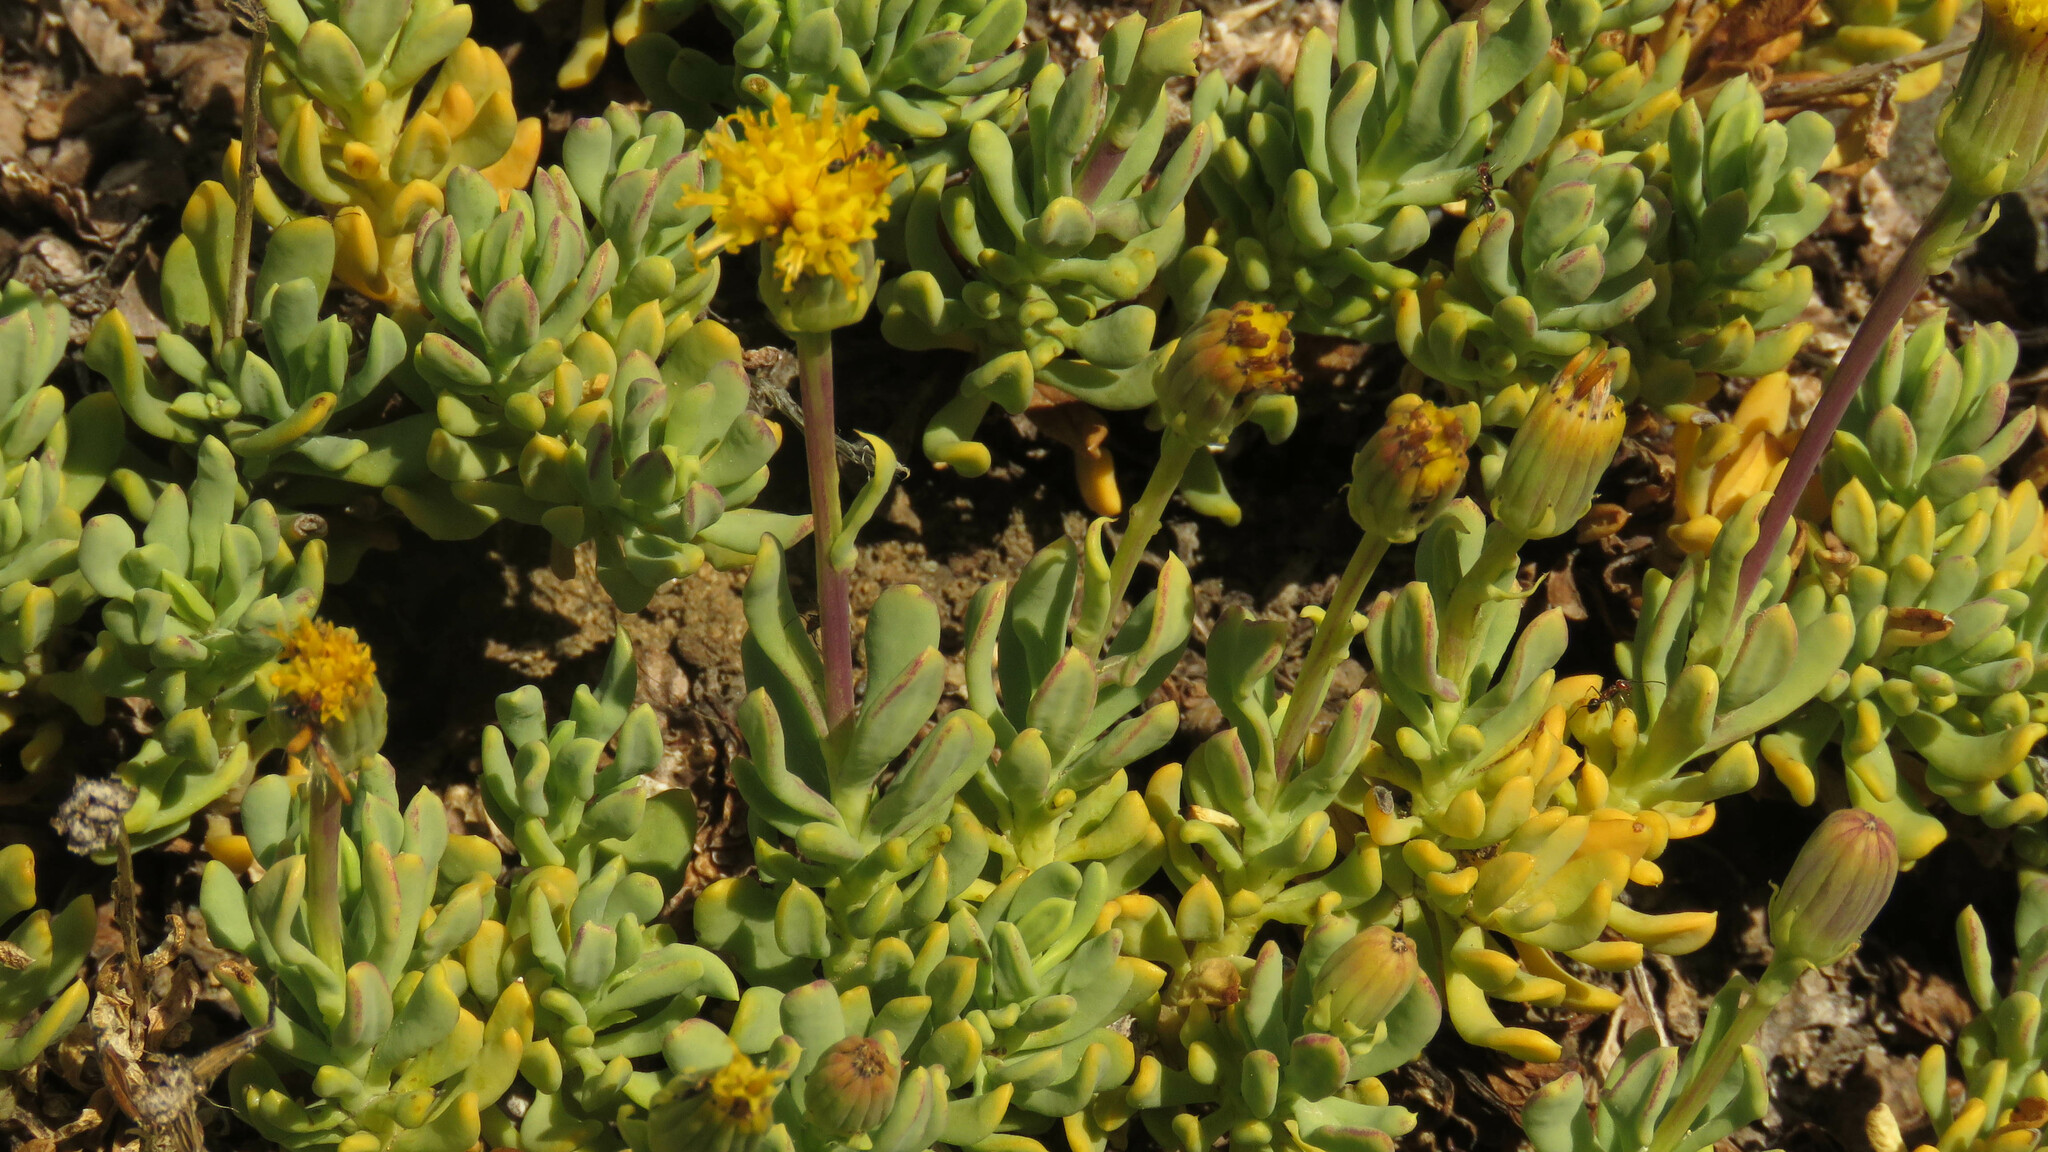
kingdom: Plantae
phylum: Tracheophyta
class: Magnoliopsida
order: Asterales
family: Asteraceae
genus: Senecio
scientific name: Senecio tristis
